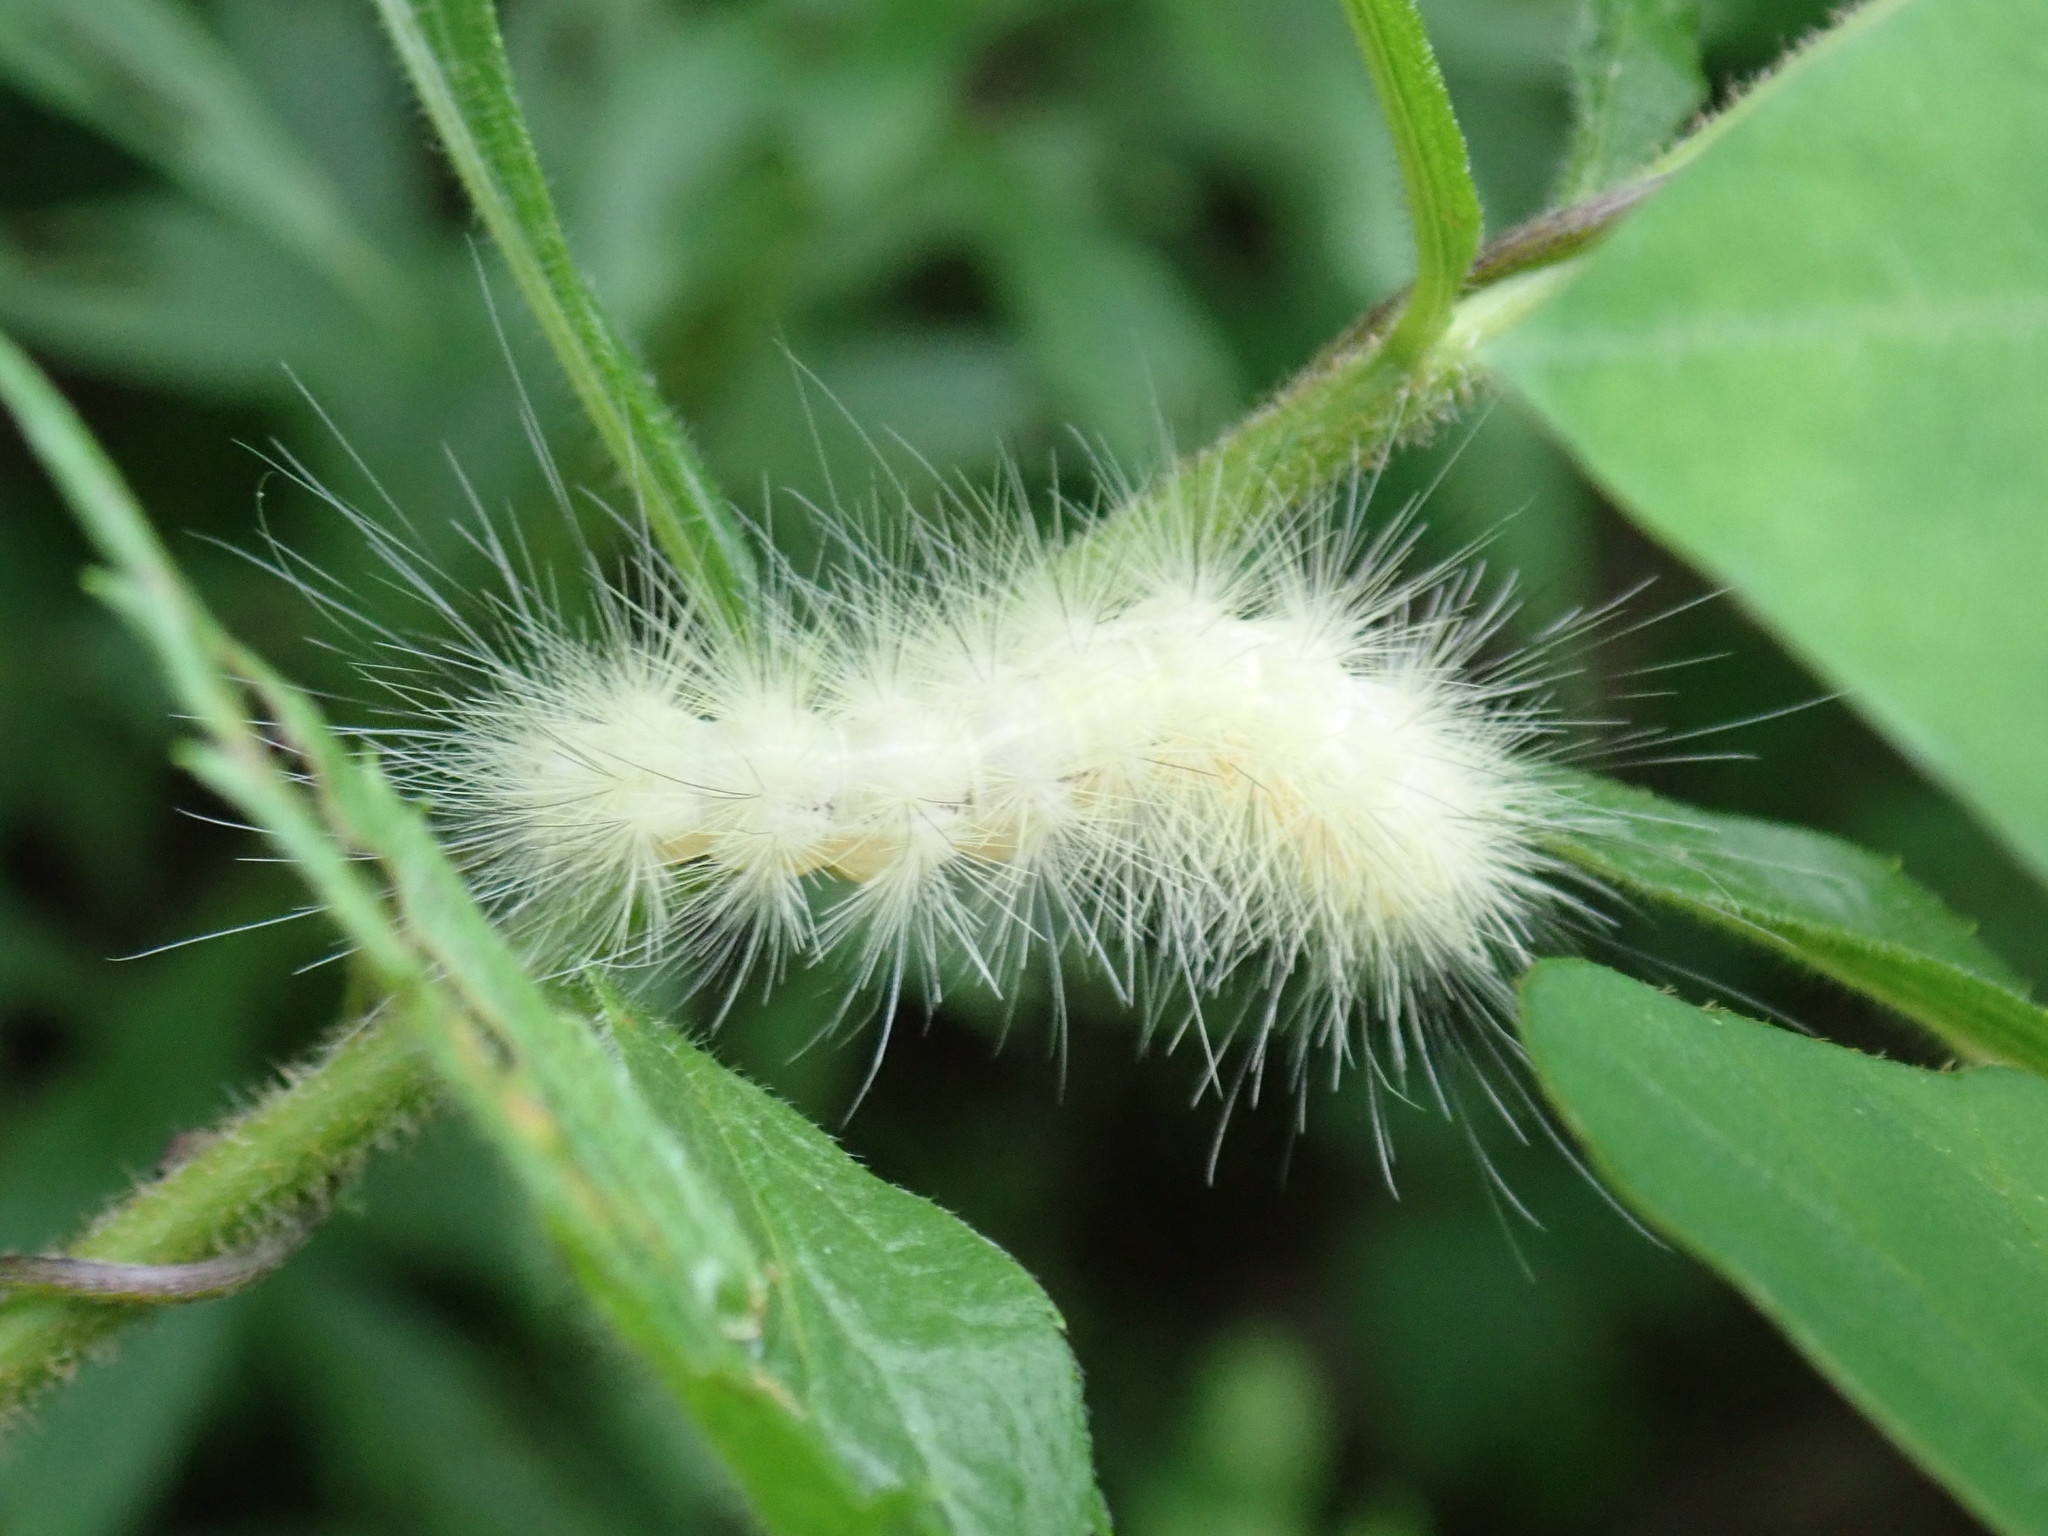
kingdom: Animalia
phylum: Arthropoda
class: Insecta
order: Lepidoptera
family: Erebidae
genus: Spilosoma
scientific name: Spilosoma virginica
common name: Virginia tiger moth
